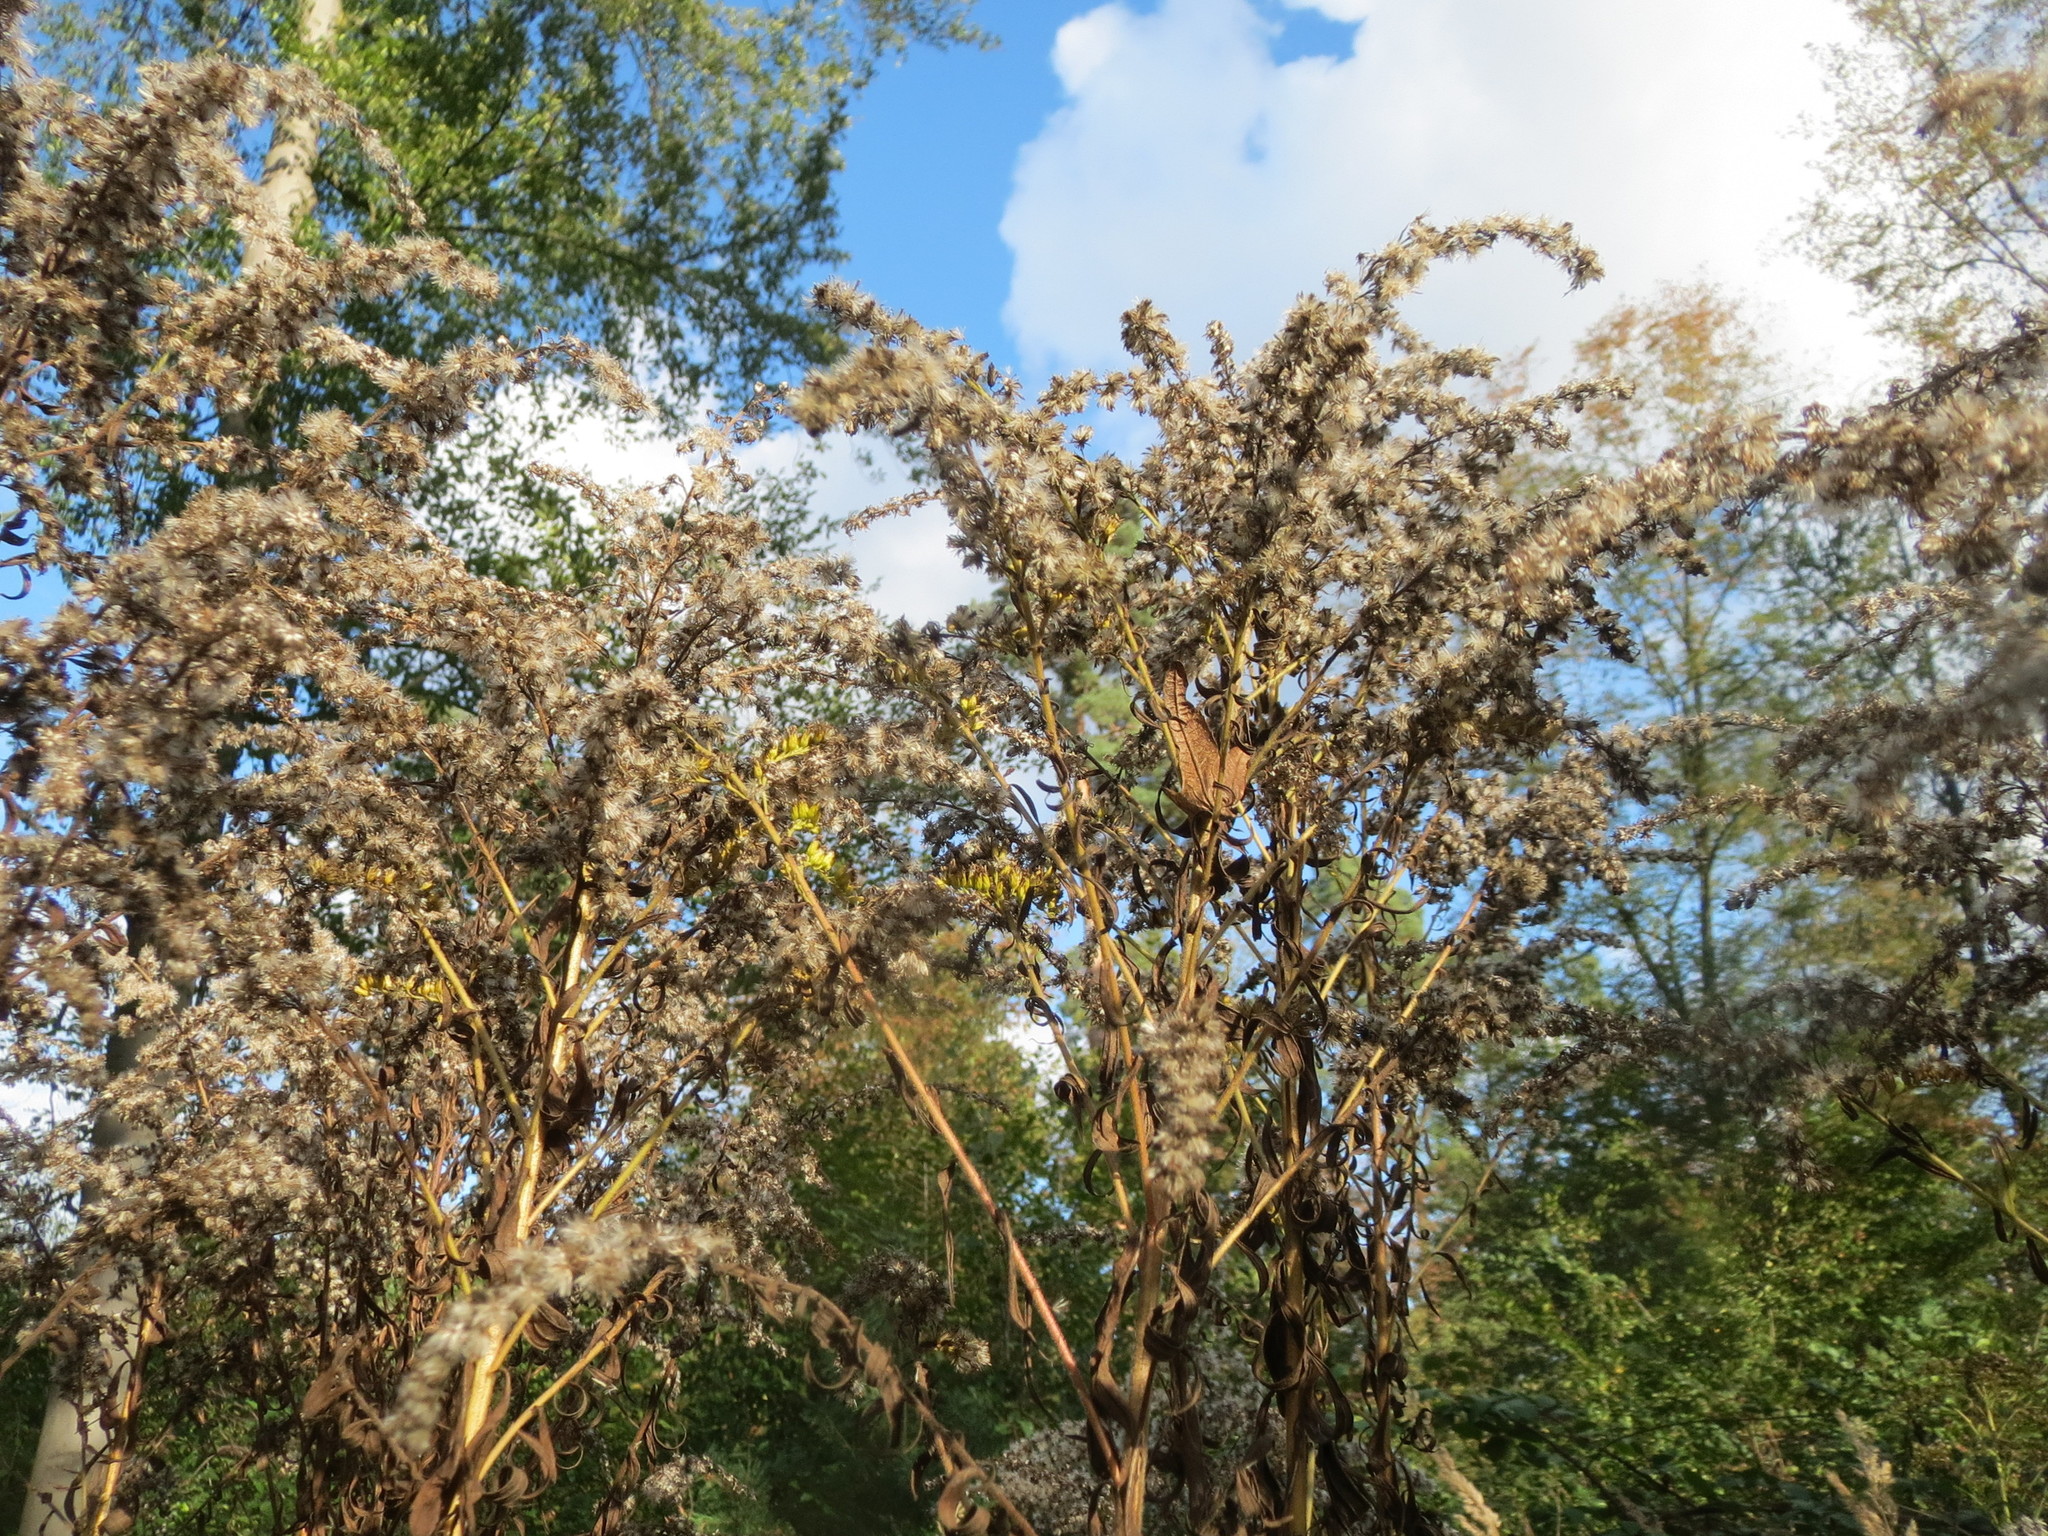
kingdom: Plantae
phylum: Tracheophyta
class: Magnoliopsida
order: Asterales
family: Asteraceae
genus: Solidago
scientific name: Solidago canadensis
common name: Canada goldenrod
